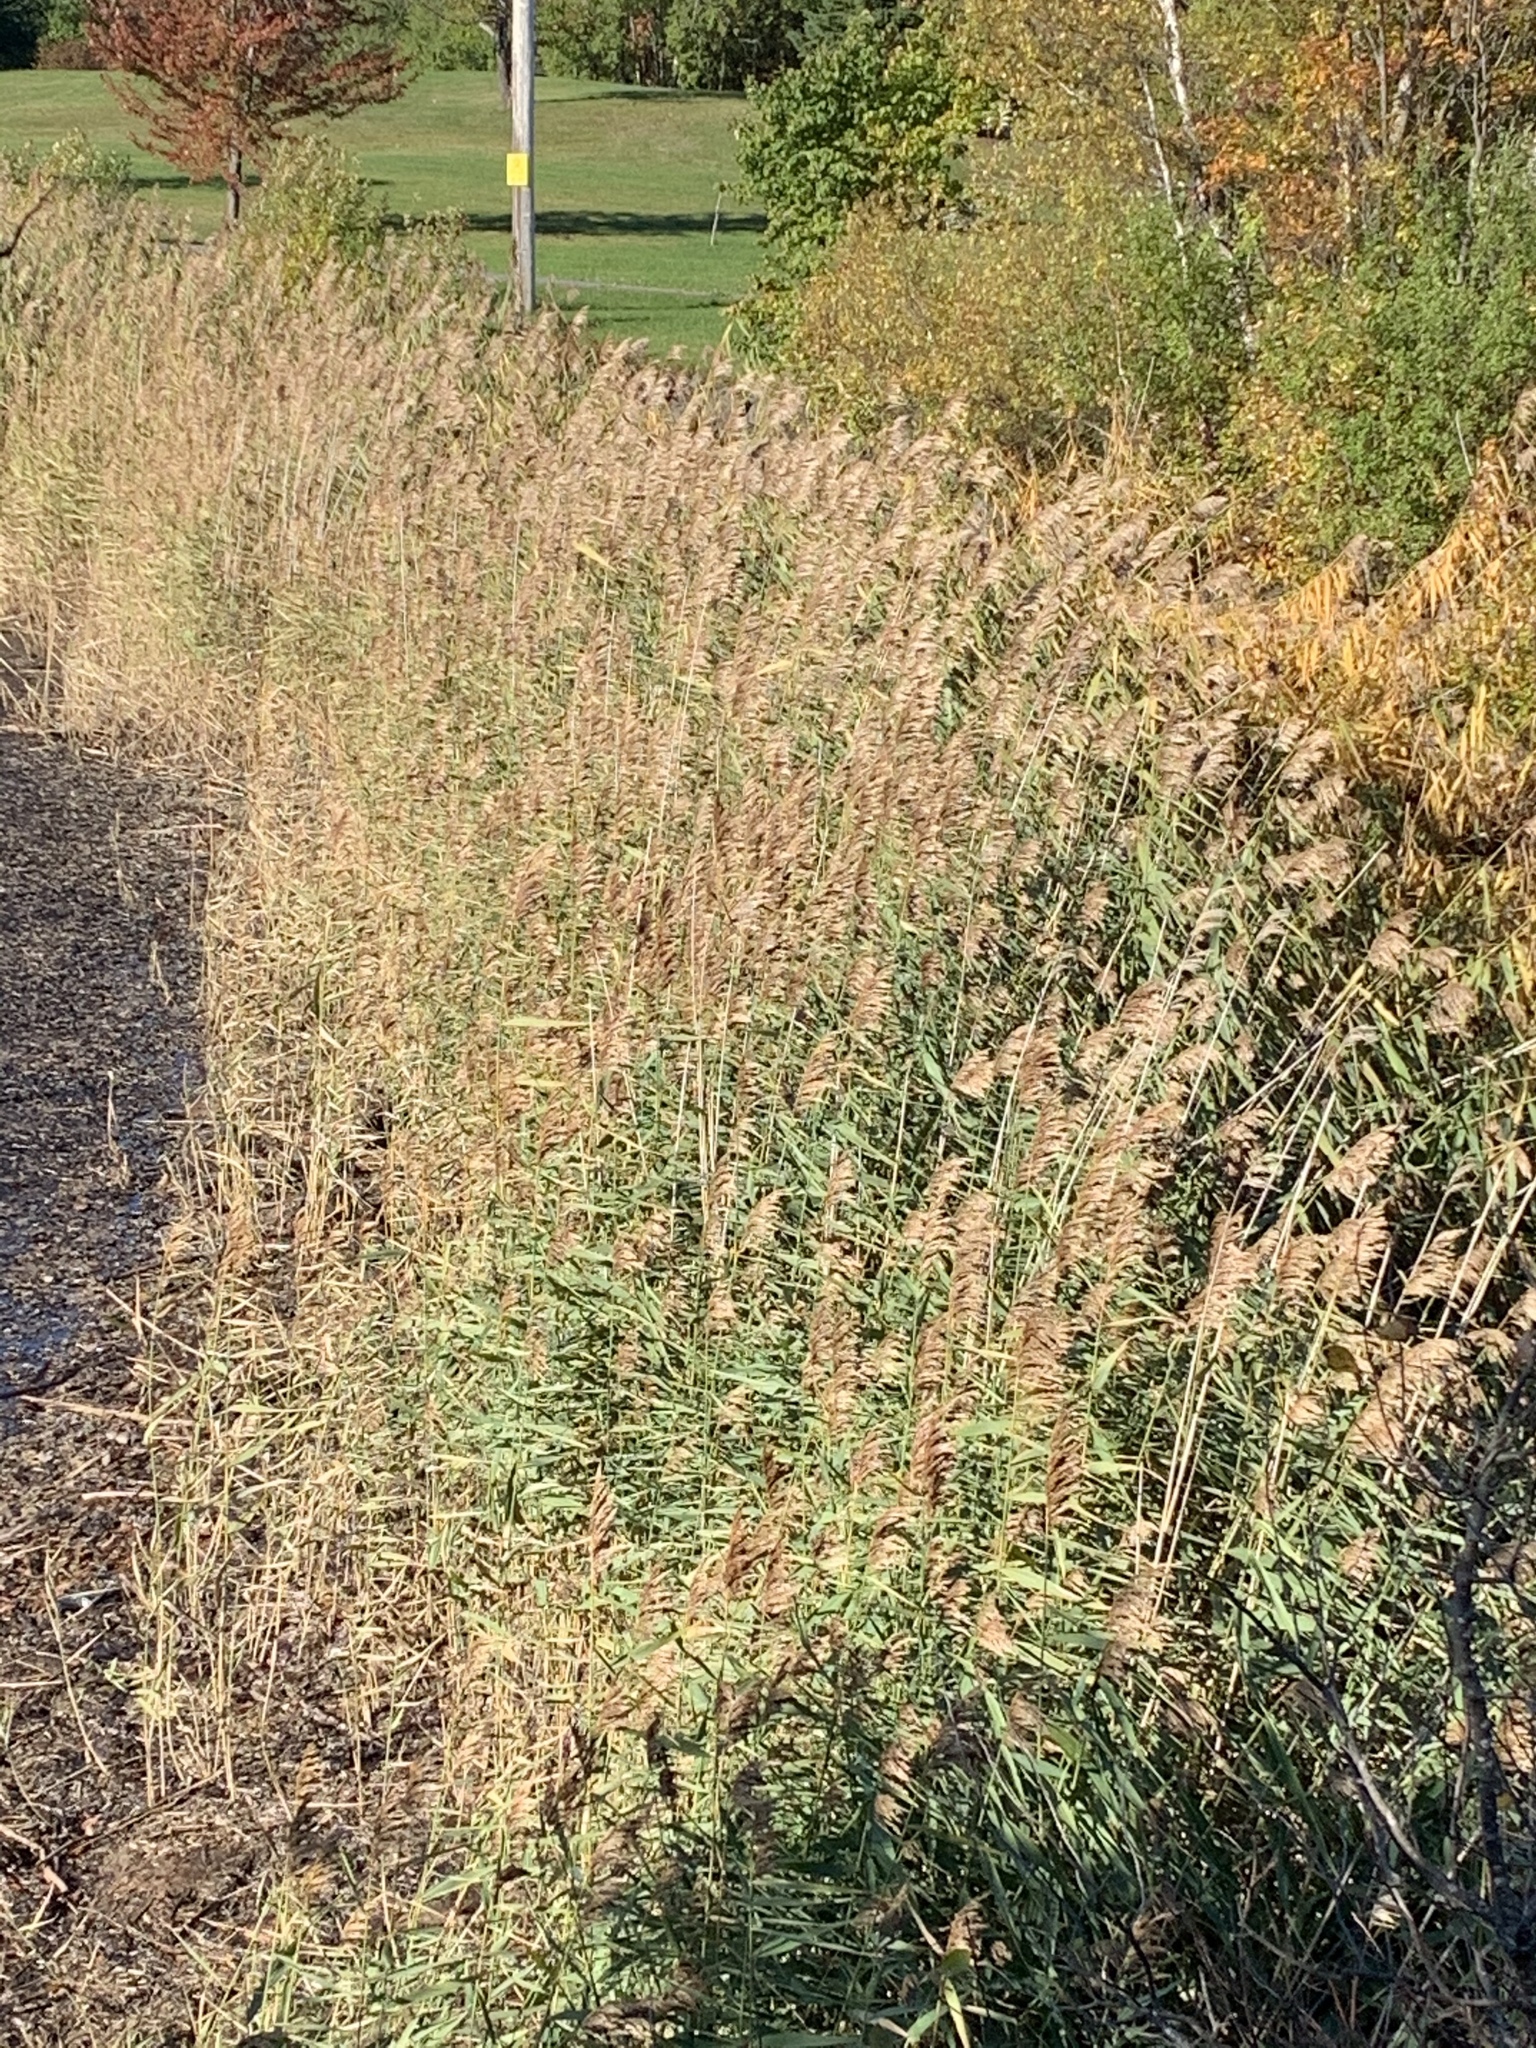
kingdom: Plantae
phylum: Tracheophyta
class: Liliopsida
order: Poales
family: Poaceae
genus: Phragmites
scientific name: Phragmites australis
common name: Common reed
